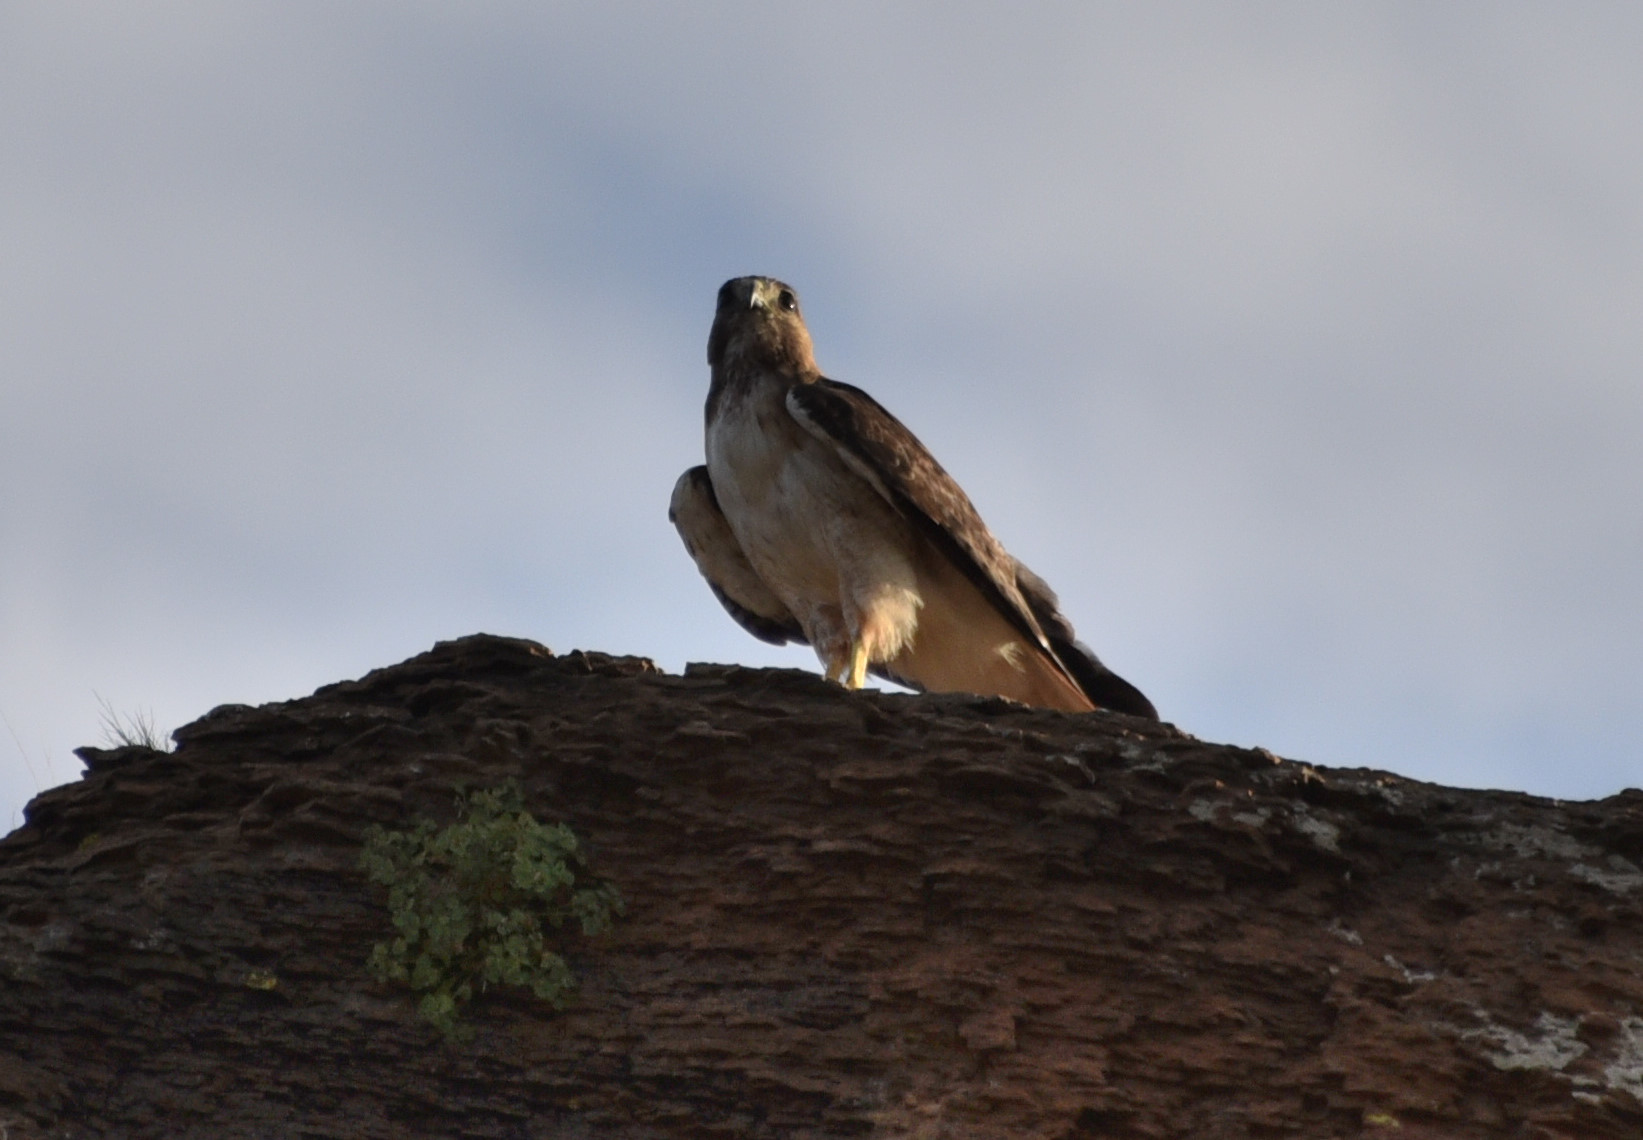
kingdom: Animalia
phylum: Chordata
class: Aves
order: Accipitriformes
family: Accipitridae
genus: Buteo
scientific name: Buteo jamaicensis
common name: Red-tailed hawk
